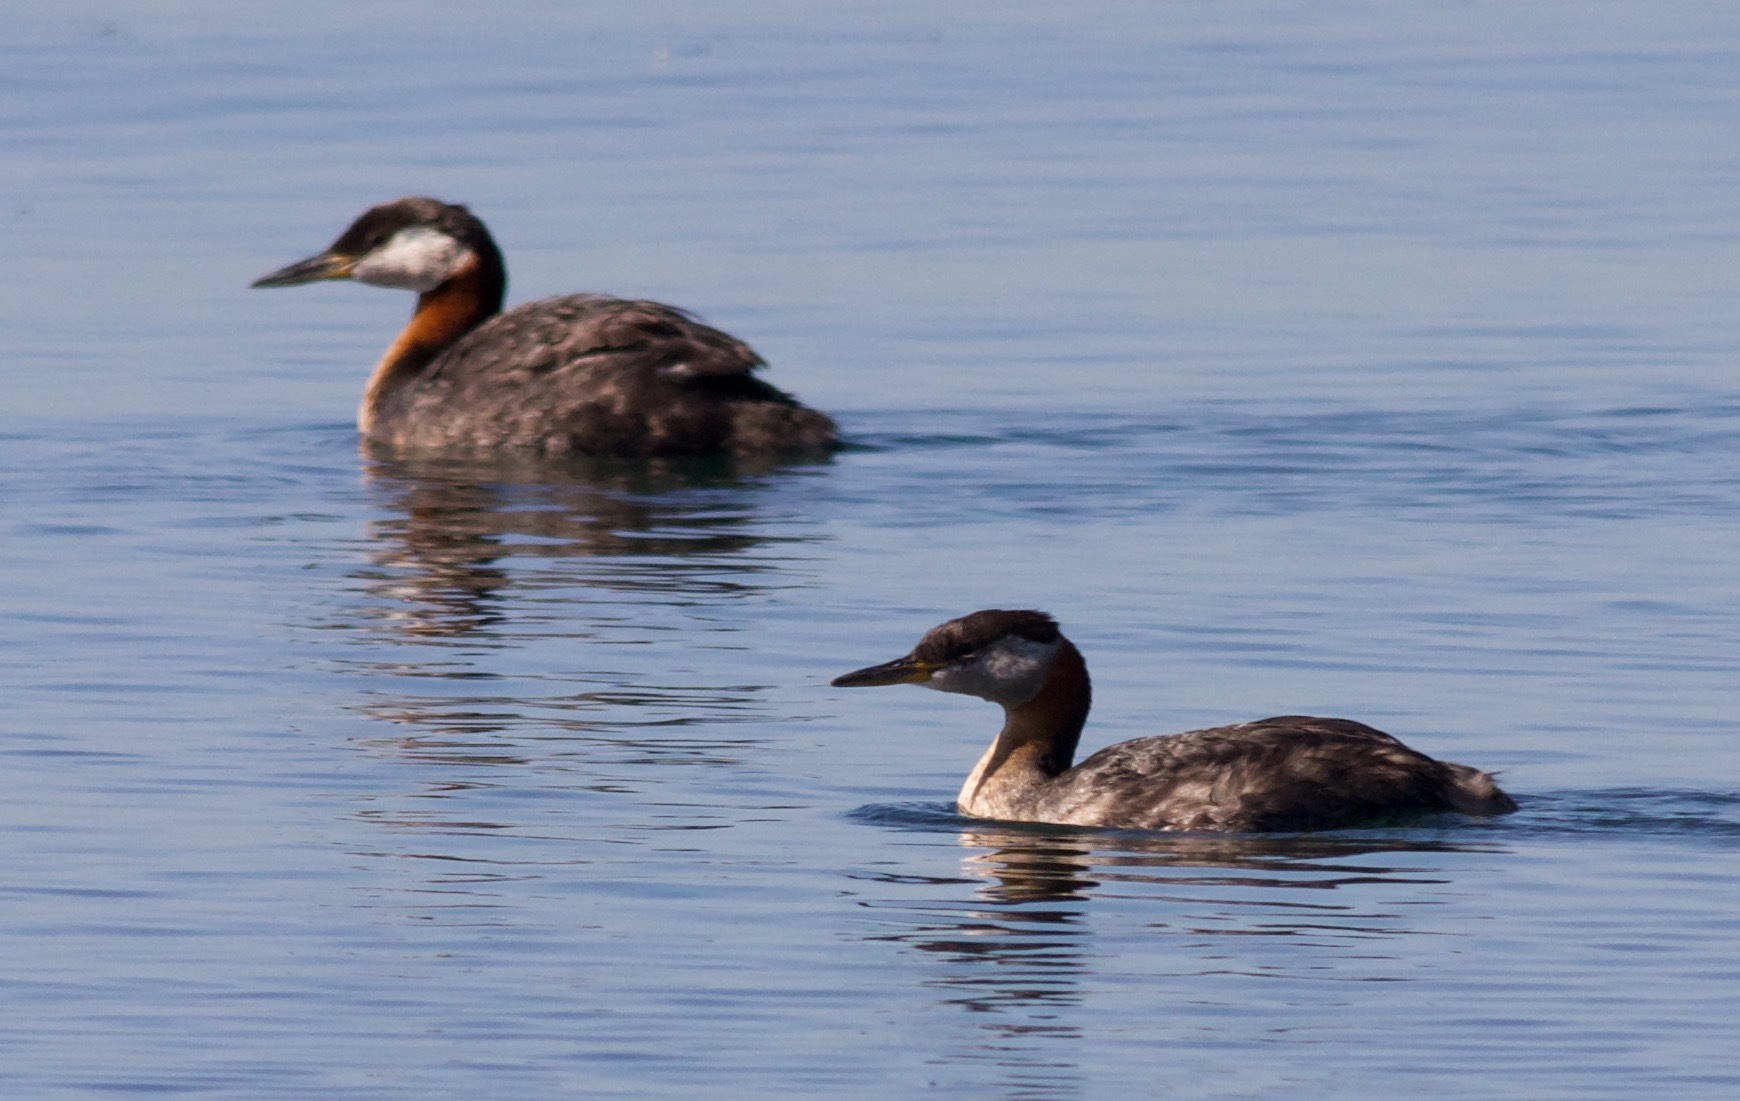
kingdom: Animalia
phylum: Chordata
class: Aves
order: Podicipediformes
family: Podicipedidae
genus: Podiceps
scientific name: Podiceps grisegena
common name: Red-necked grebe
